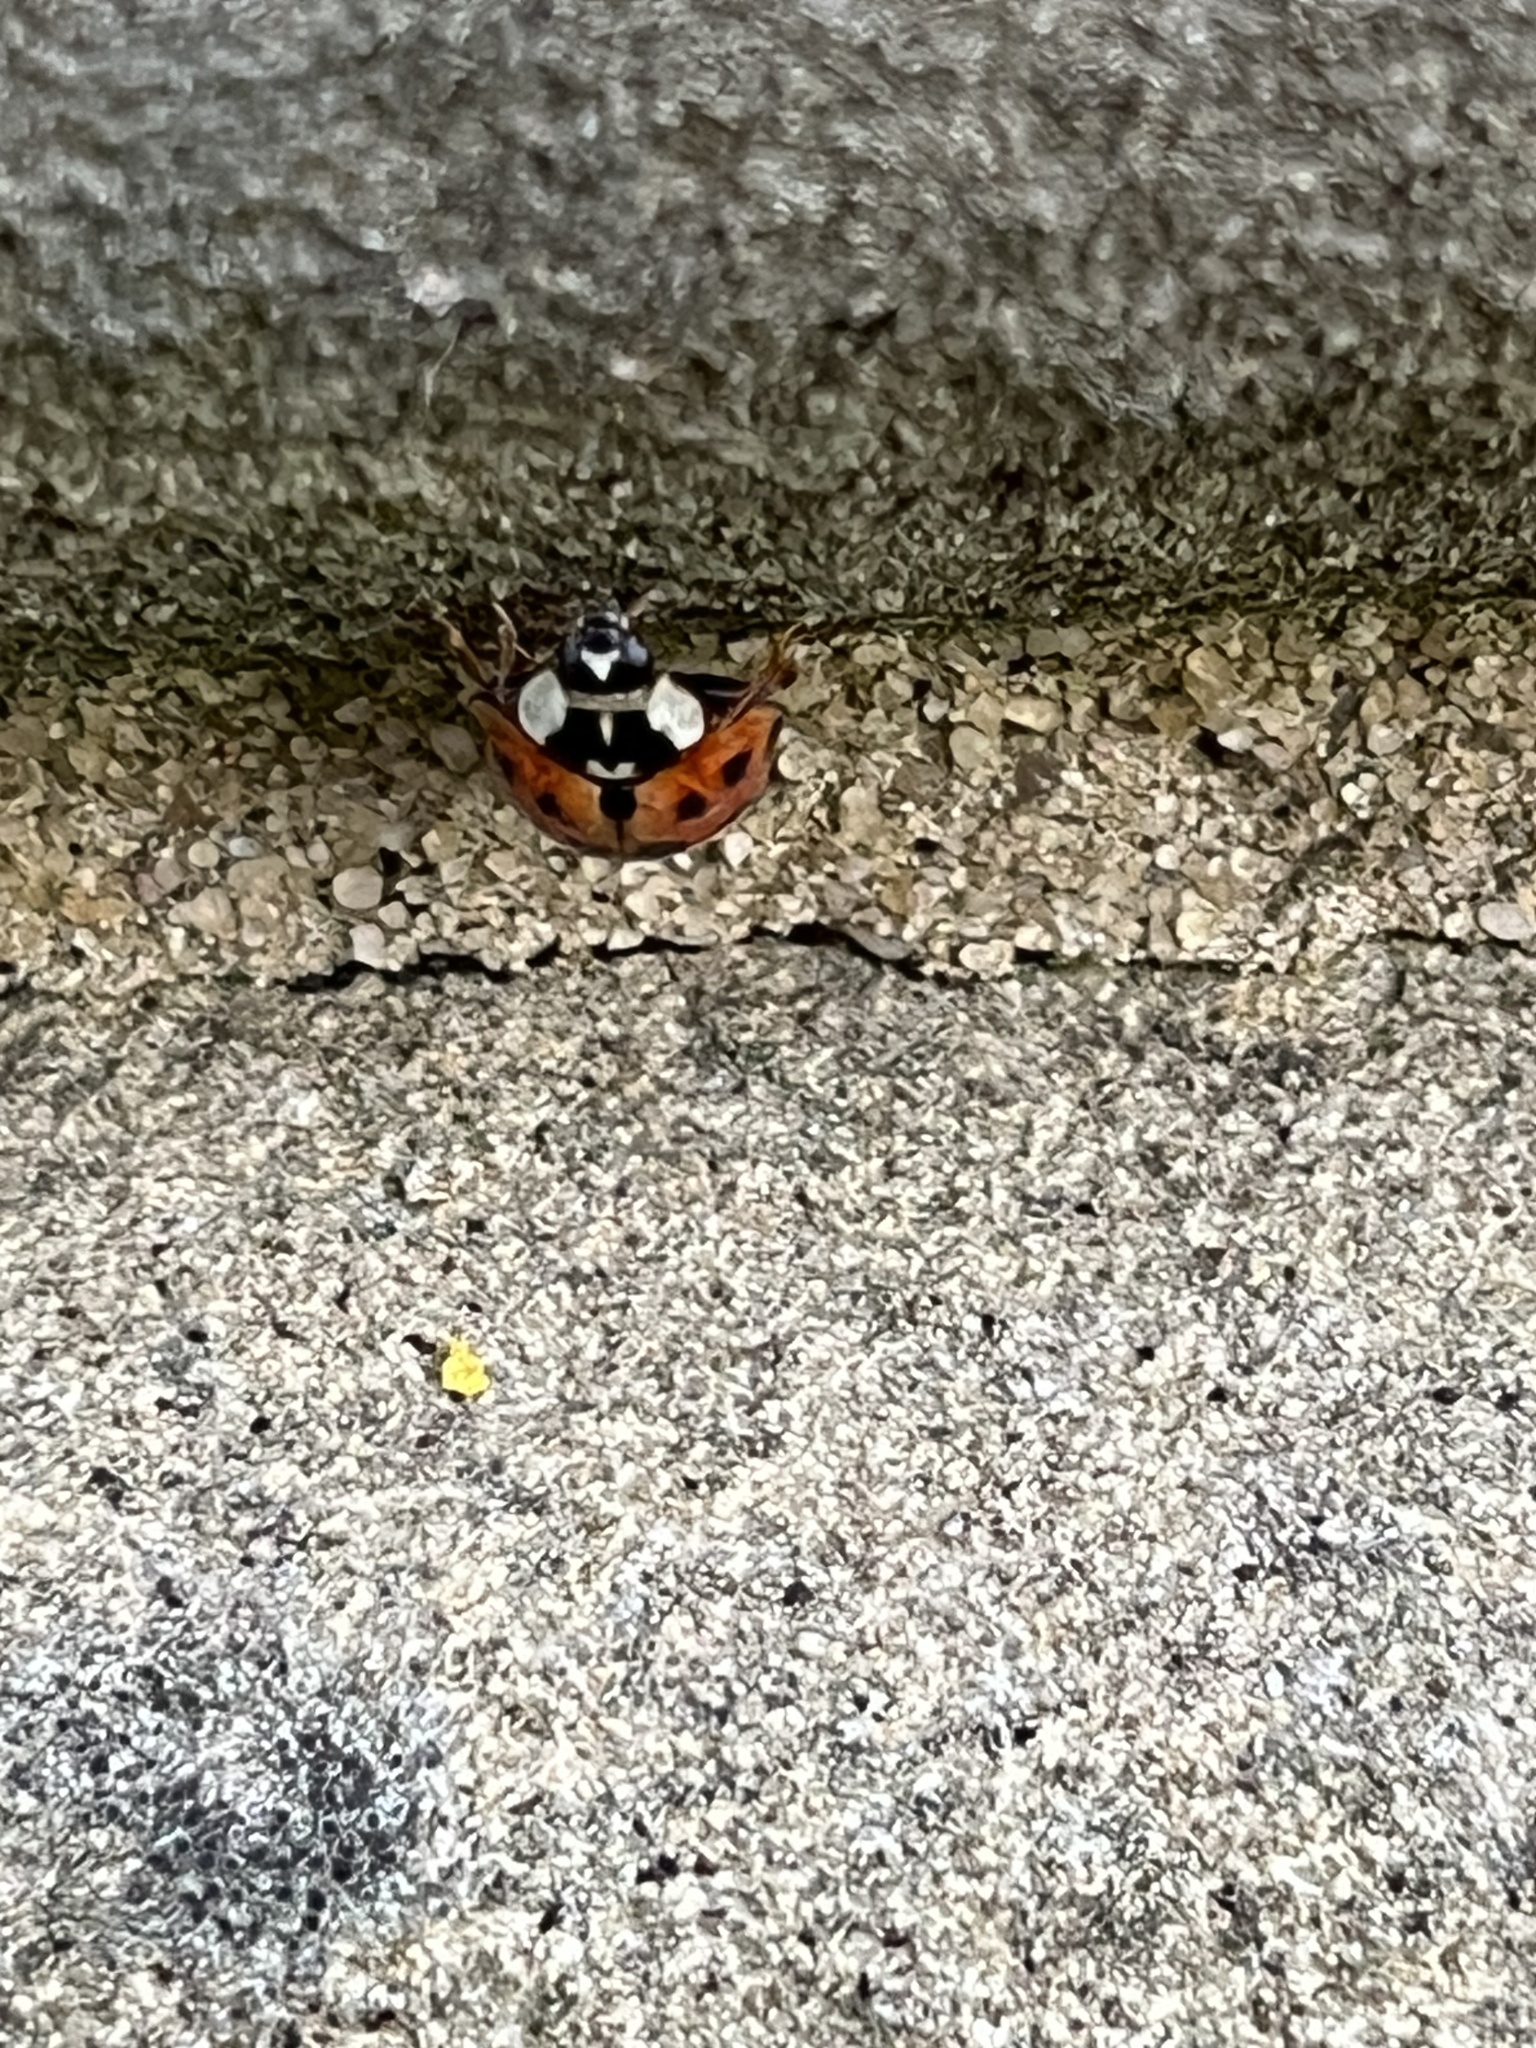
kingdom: Animalia
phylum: Arthropoda
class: Insecta
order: Coleoptera
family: Coccinellidae
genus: Harmonia
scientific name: Harmonia axyridis
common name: Harlequin ladybird
